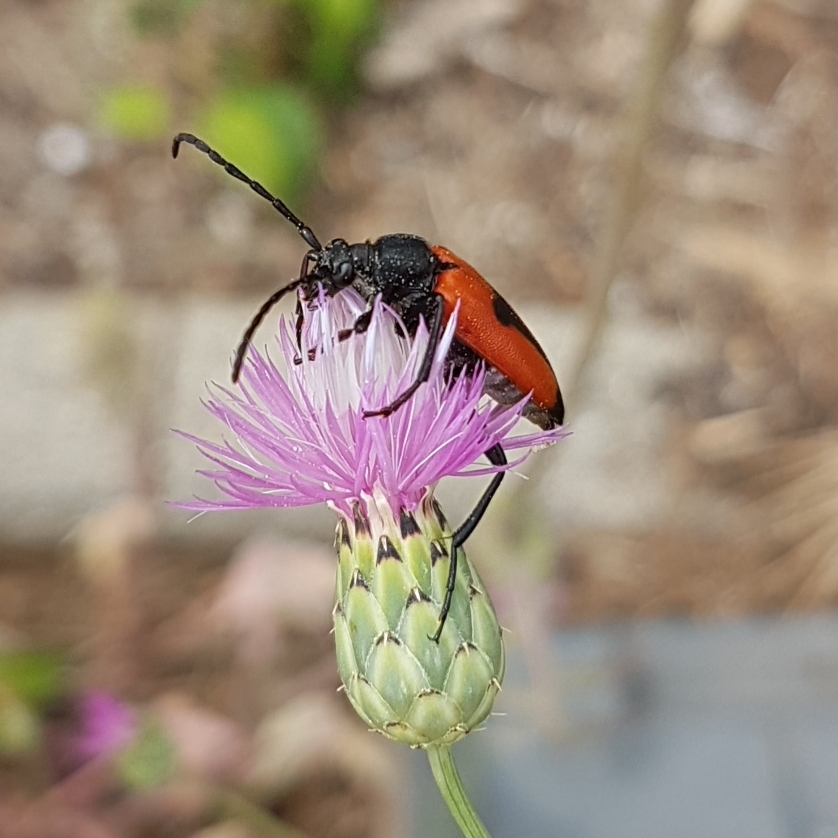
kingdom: Animalia
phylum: Arthropoda
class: Insecta
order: Coleoptera
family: Cerambycidae
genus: Stictoleptura
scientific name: Stictoleptura cordigera
